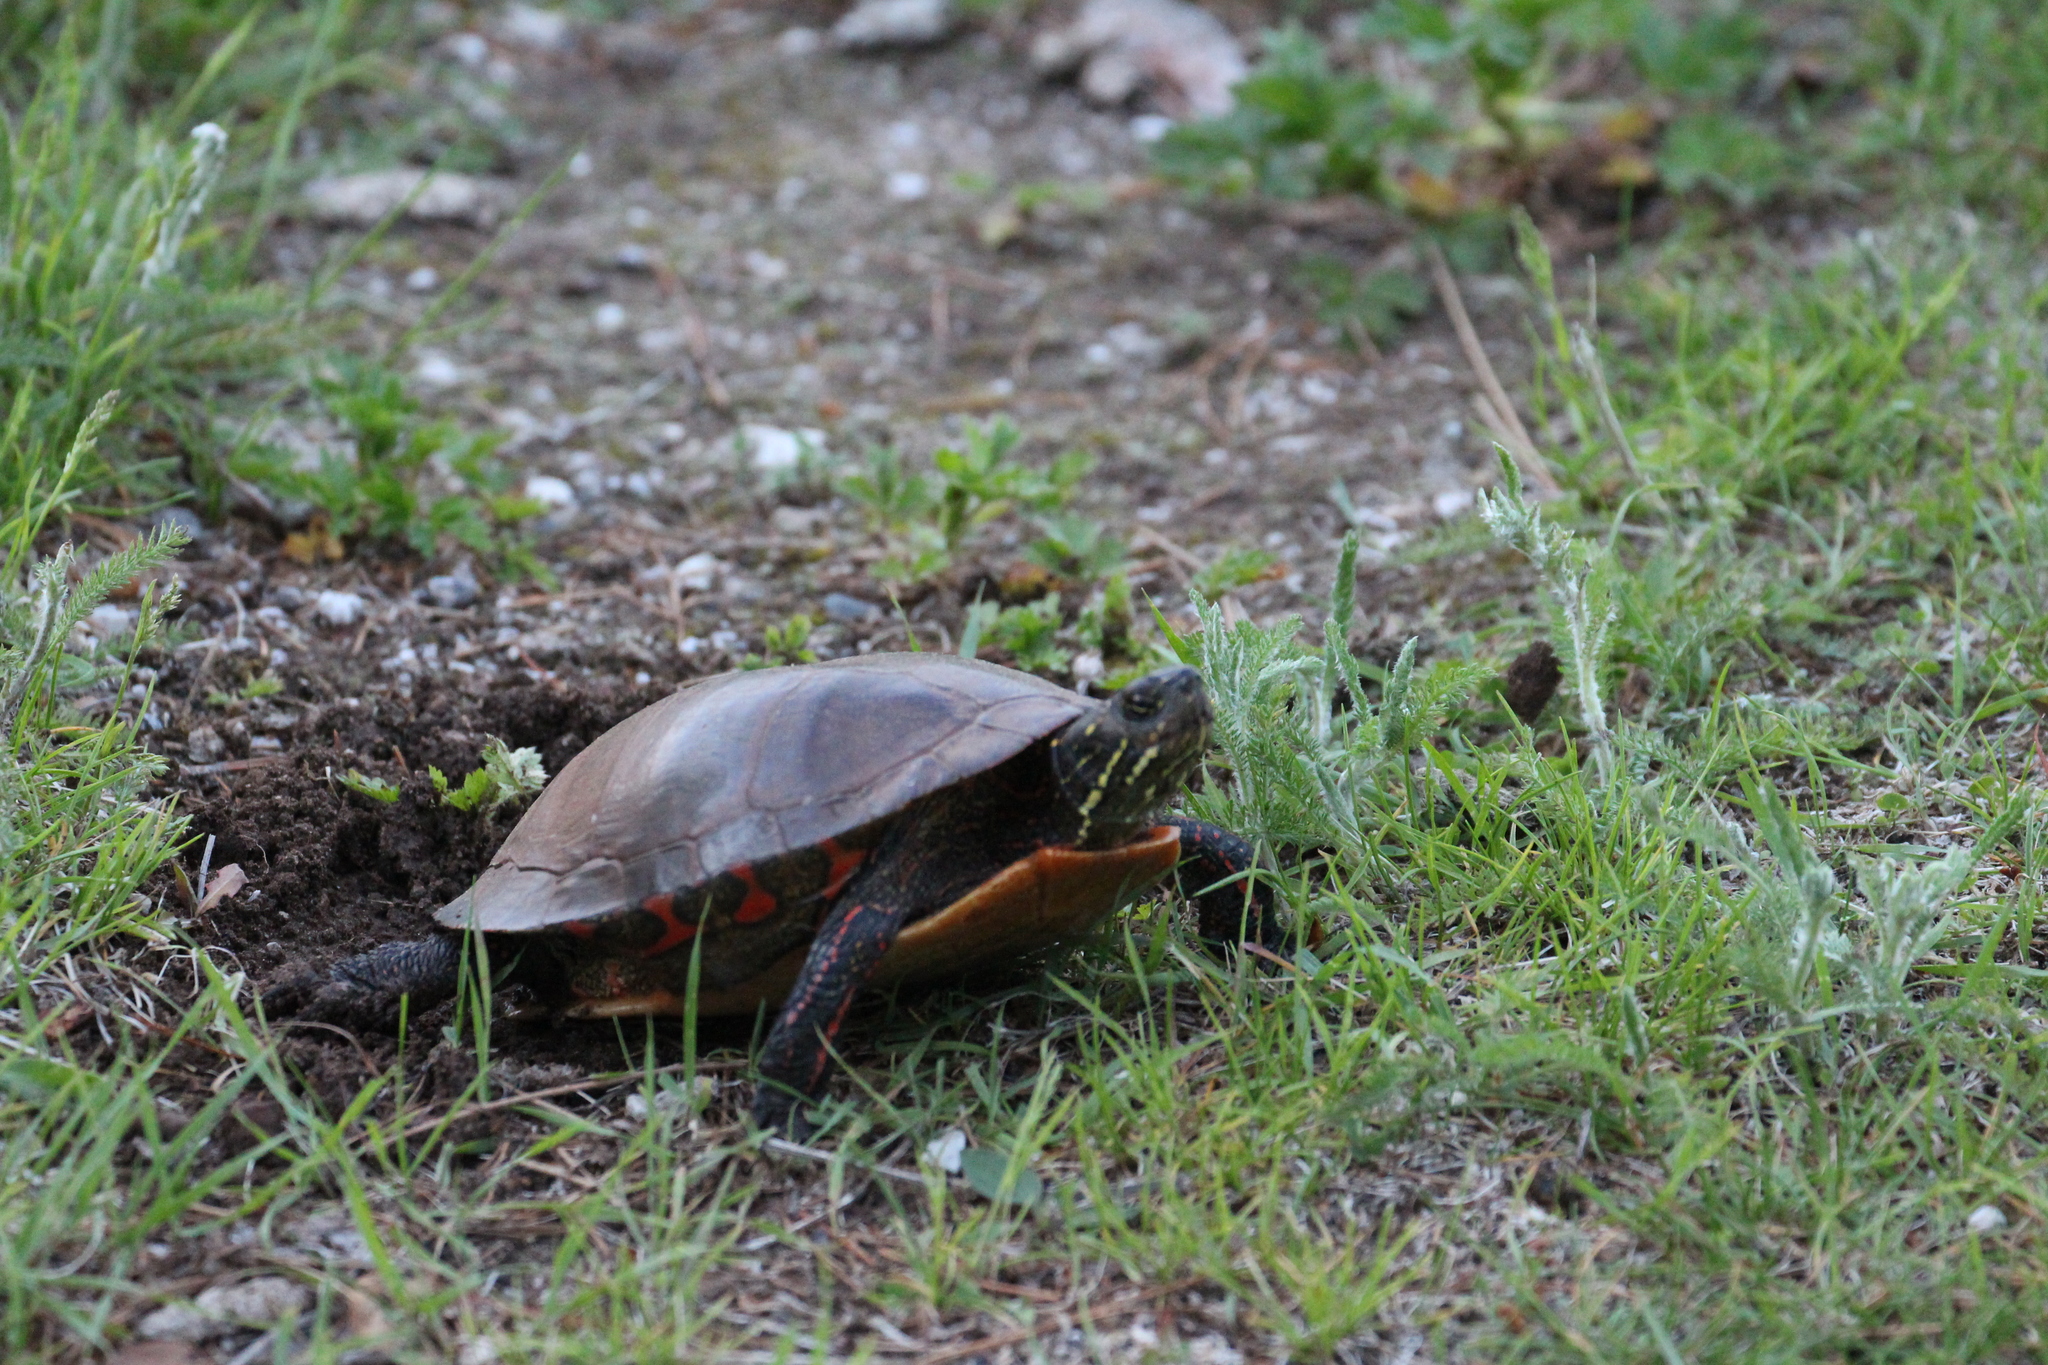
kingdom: Animalia
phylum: Chordata
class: Testudines
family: Emydidae
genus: Chrysemys
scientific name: Chrysemys picta
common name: Painted turtle
